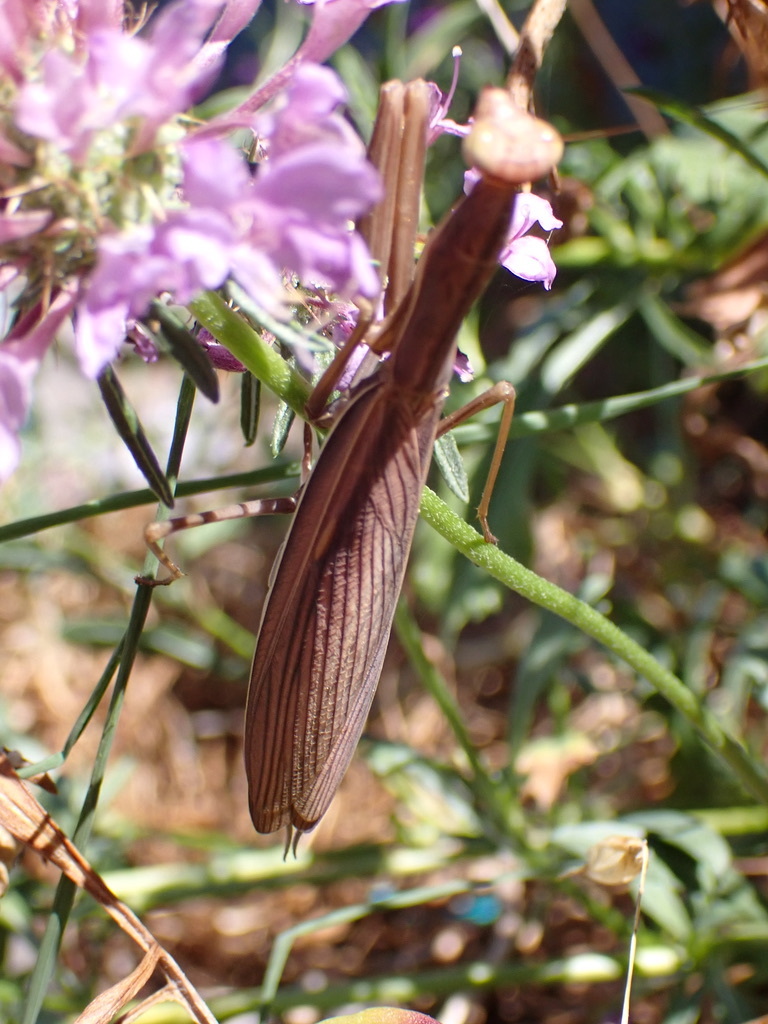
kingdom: Animalia
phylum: Arthropoda
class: Insecta
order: Mantodea
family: Mantidae
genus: Mantis
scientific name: Mantis religiosa
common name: Praying mantis
